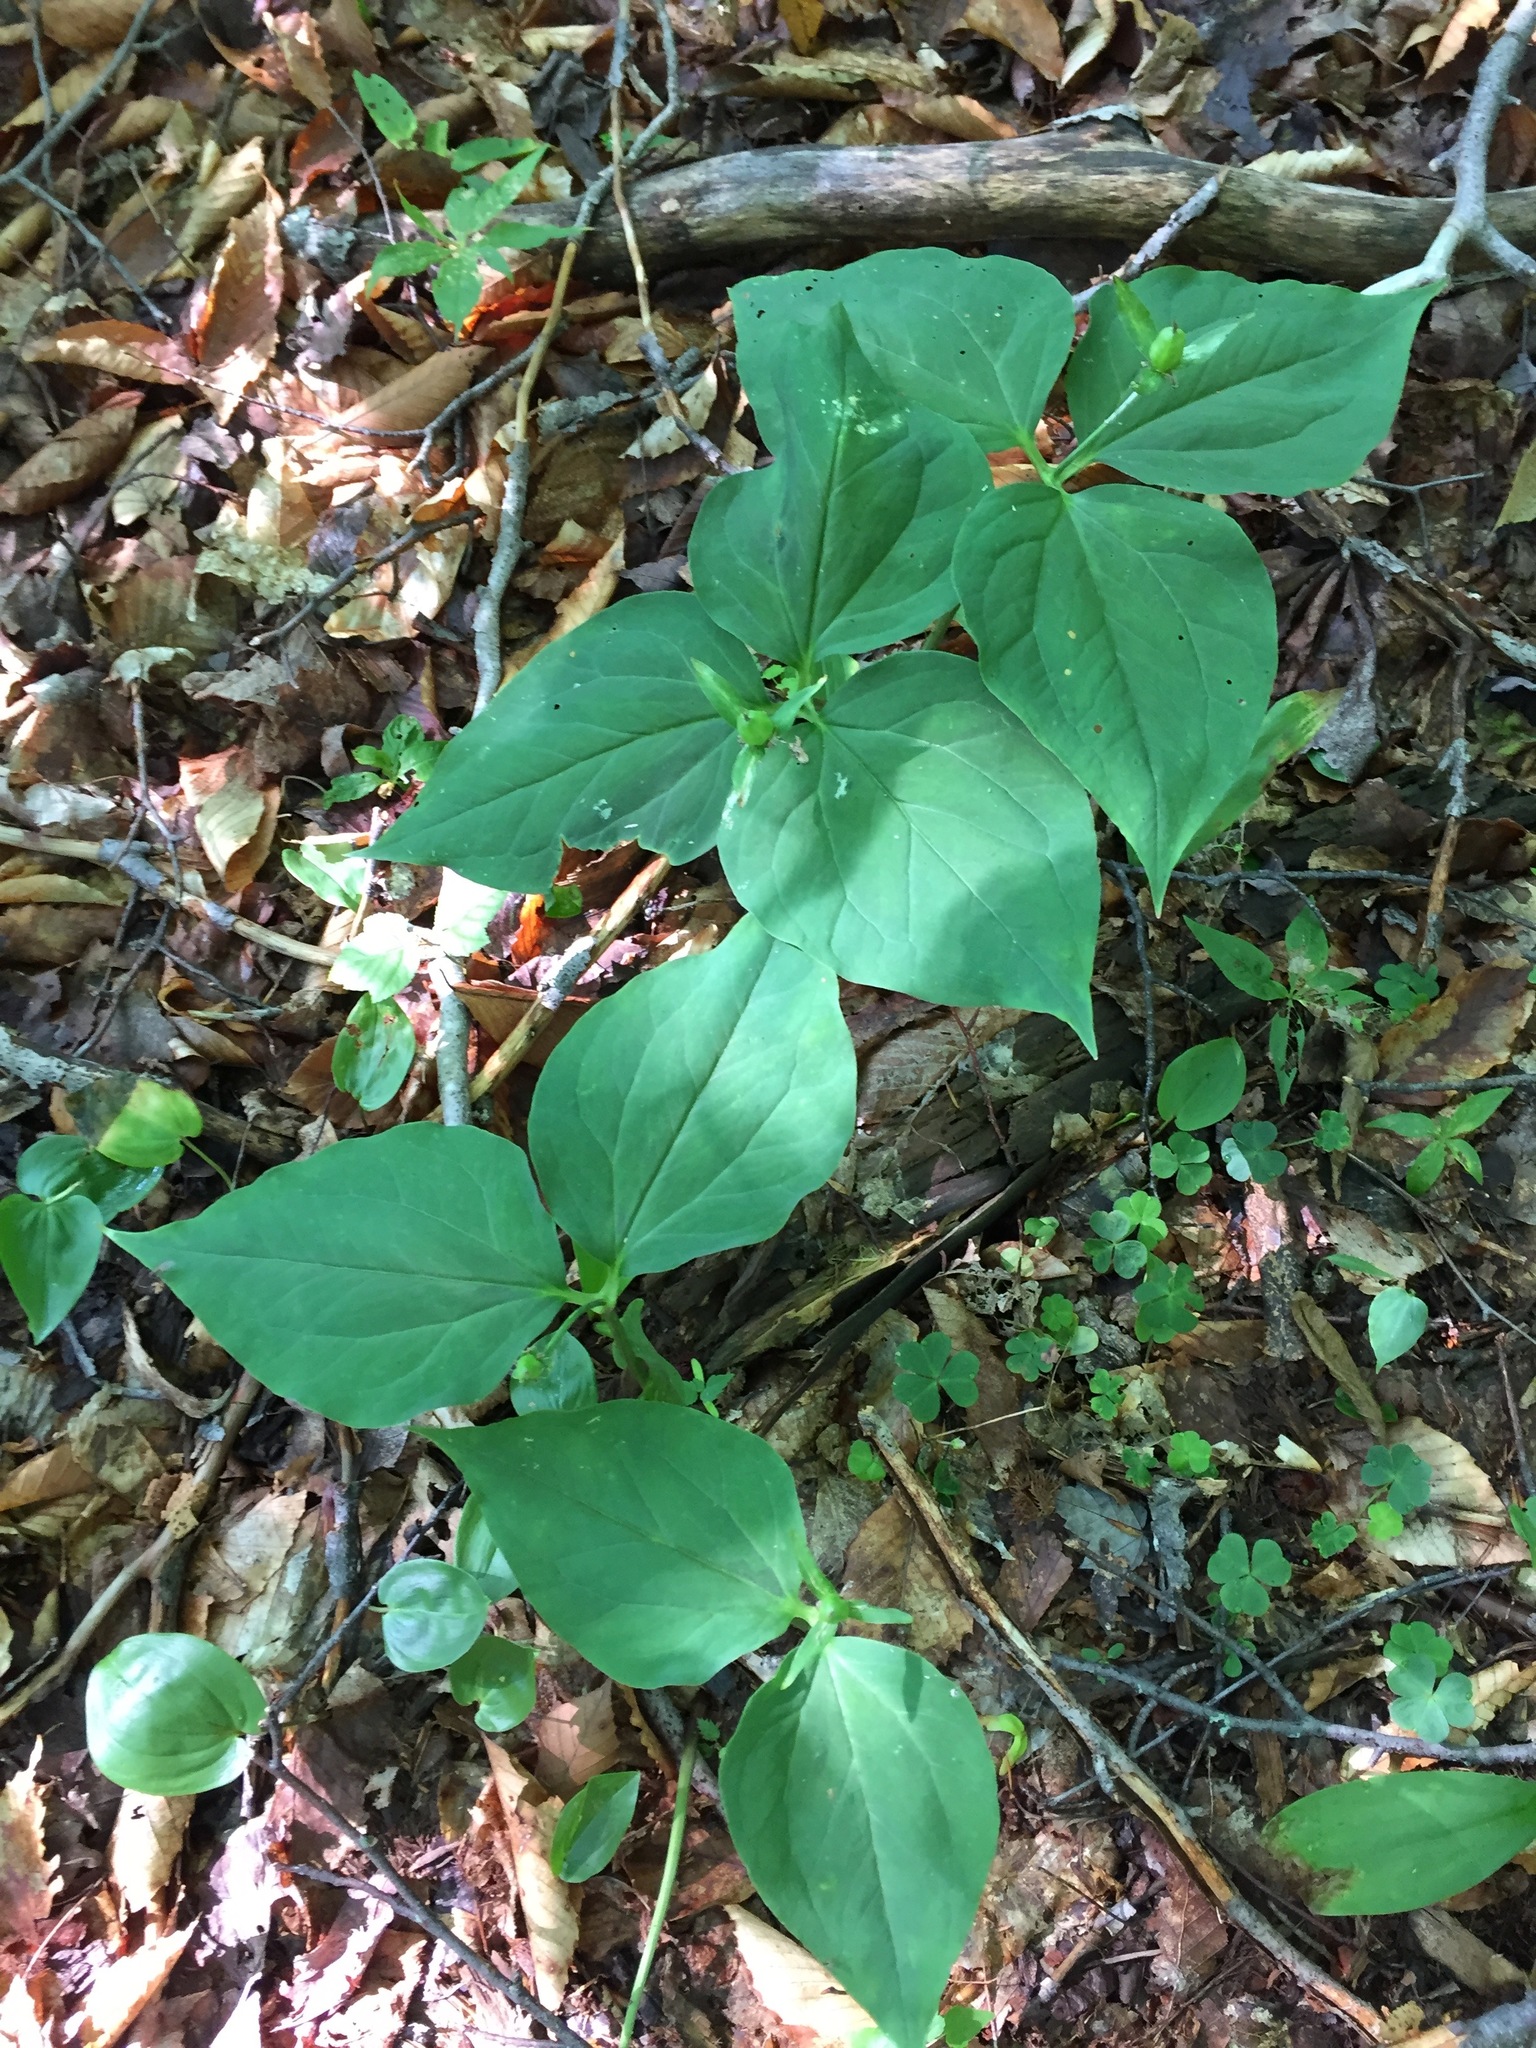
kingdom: Plantae
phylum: Tracheophyta
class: Liliopsida
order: Liliales
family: Melanthiaceae
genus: Trillium
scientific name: Trillium undulatum
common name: Paint trillium
